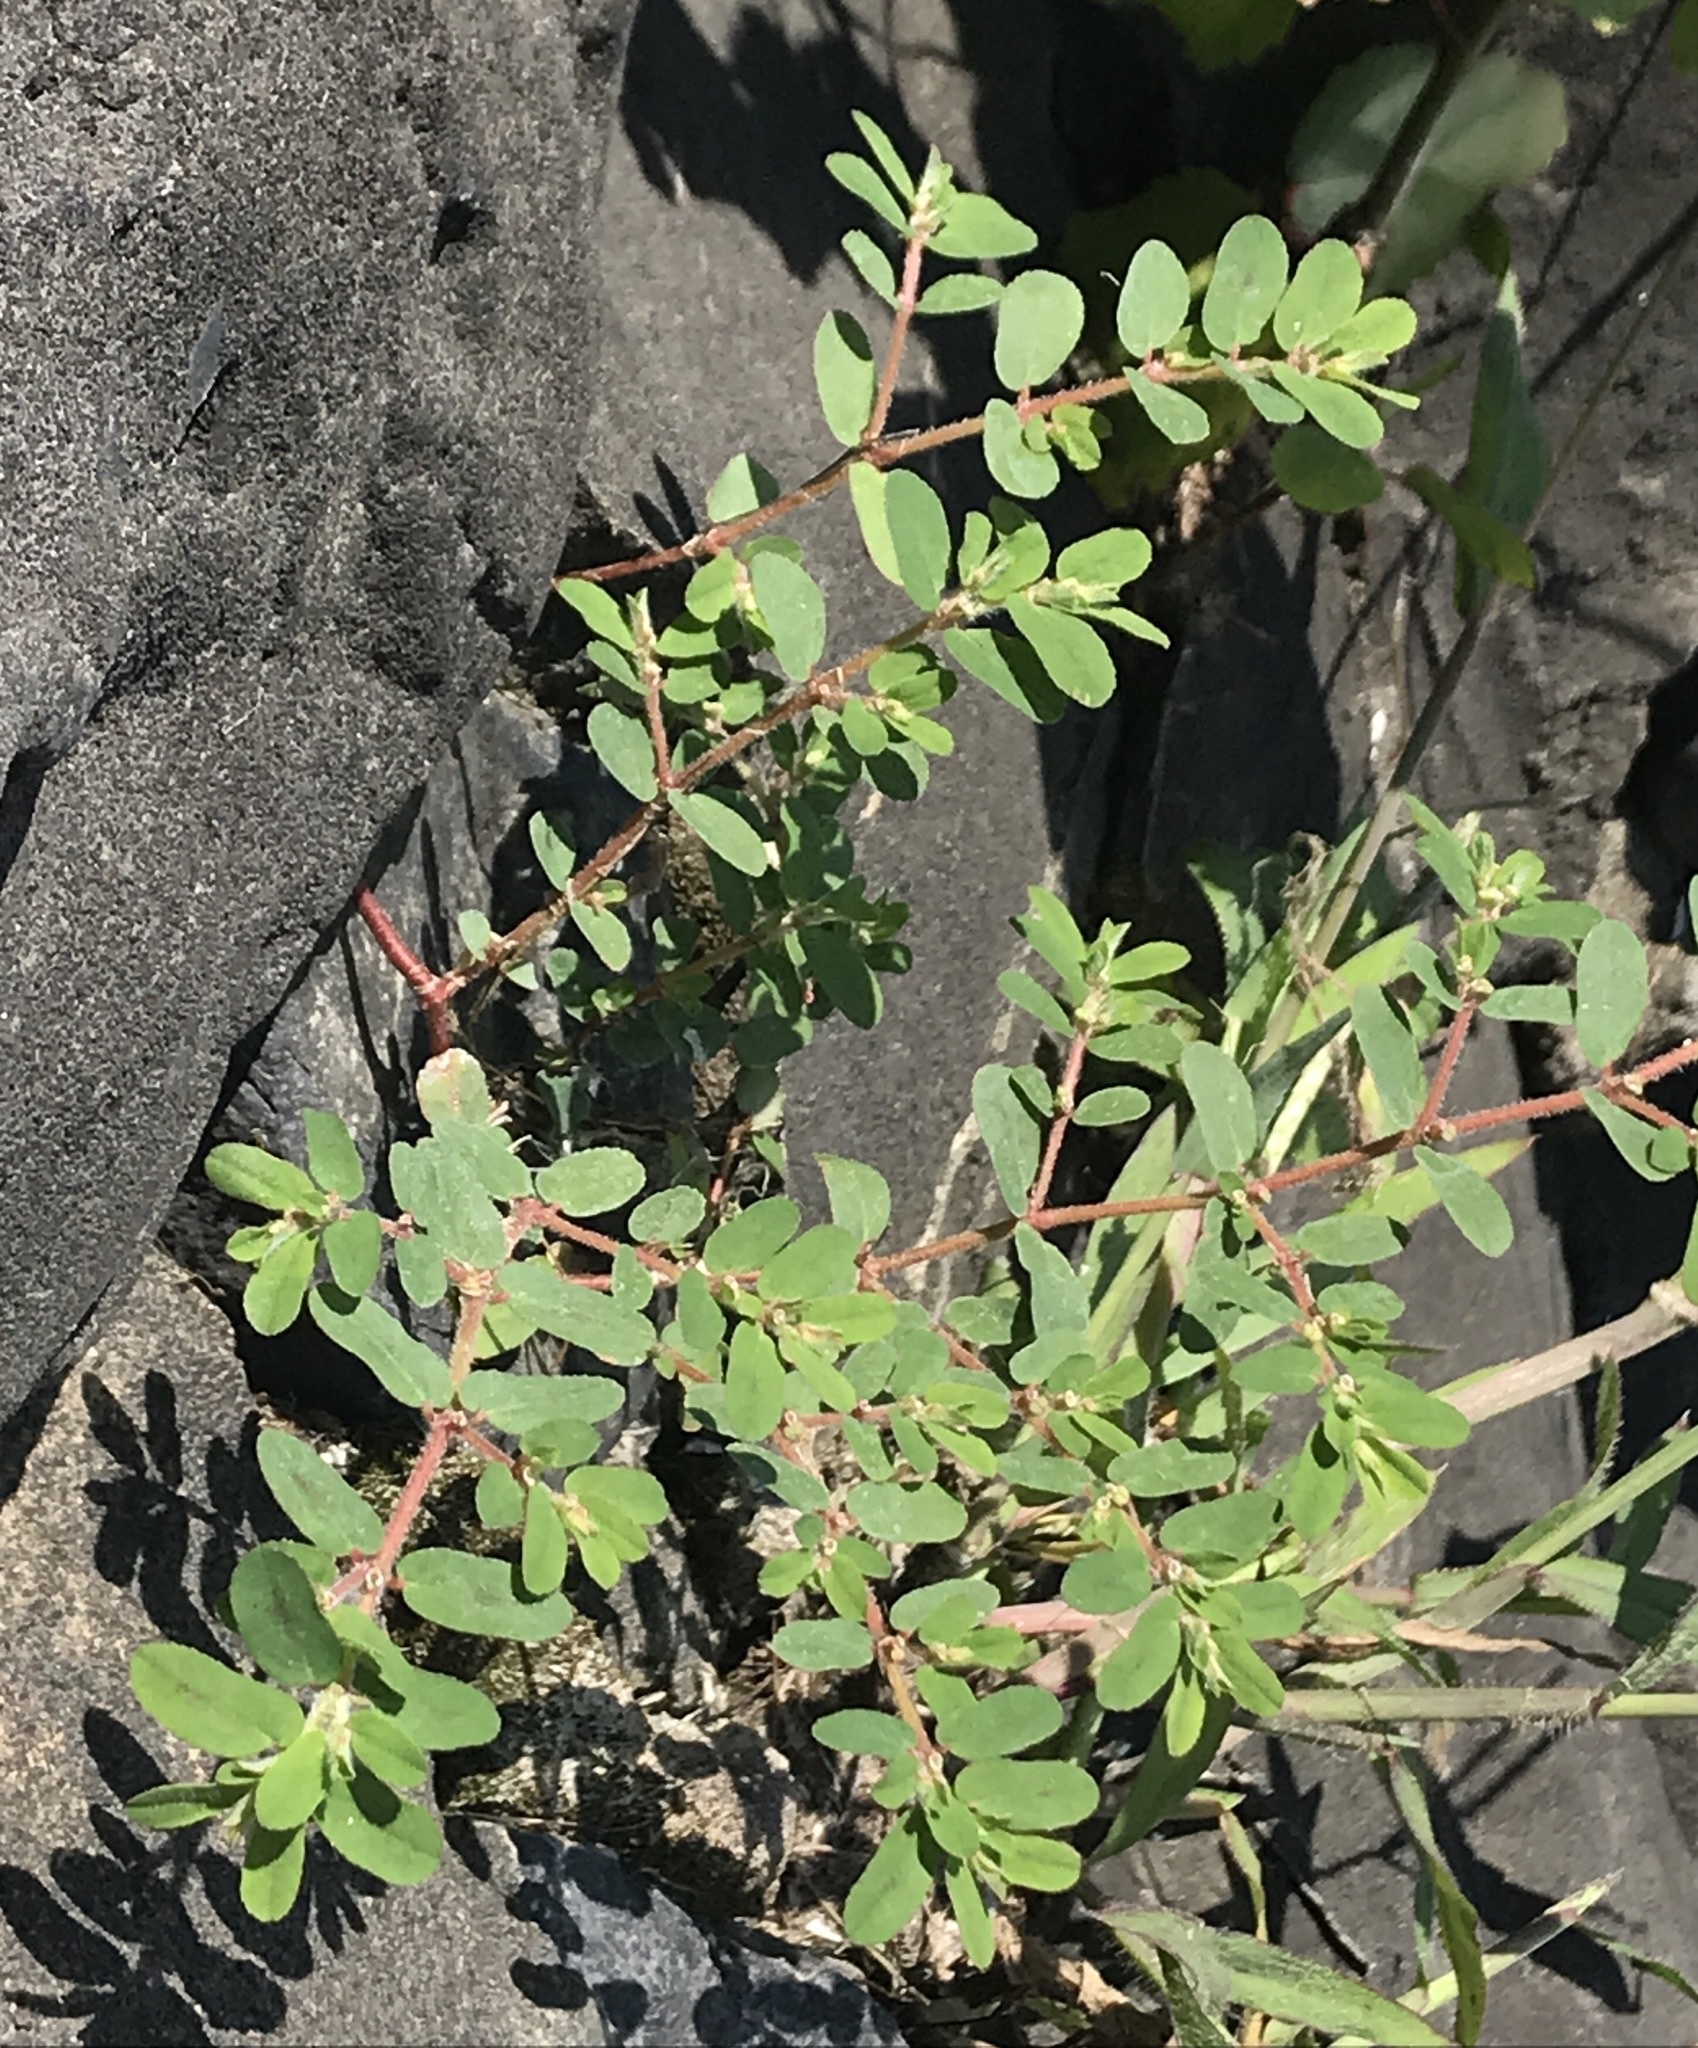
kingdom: Plantae
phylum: Tracheophyta
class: Magnoliopsida
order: Malpighiales
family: Euphorbiaceae
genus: Euphorbia
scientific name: Euphorbia maculata
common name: Spotted spurge
